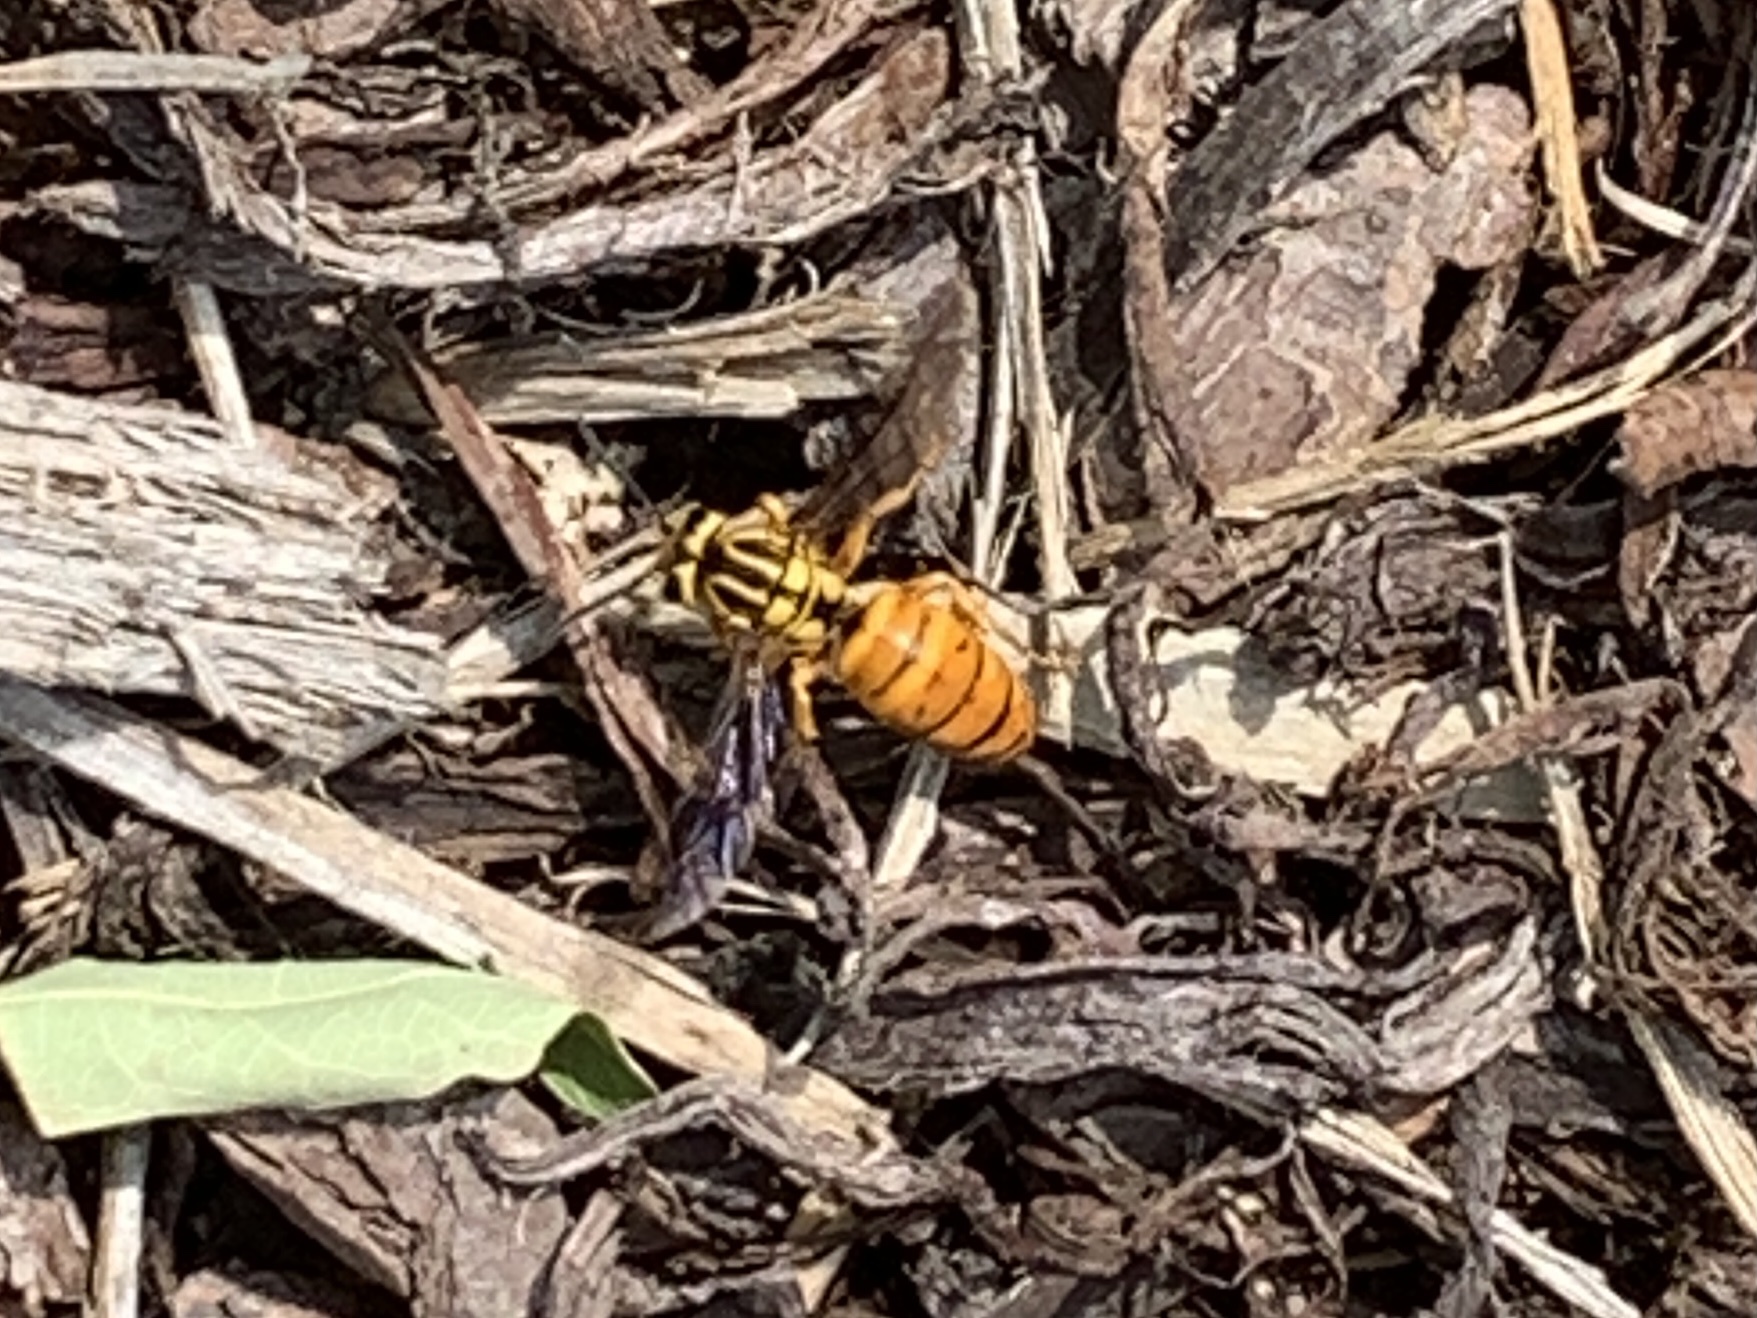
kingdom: Animalia
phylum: Arthropoda
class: Insecta
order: Hymenoptera
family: Vespidae
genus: Vespula
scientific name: Vespula squamosa
